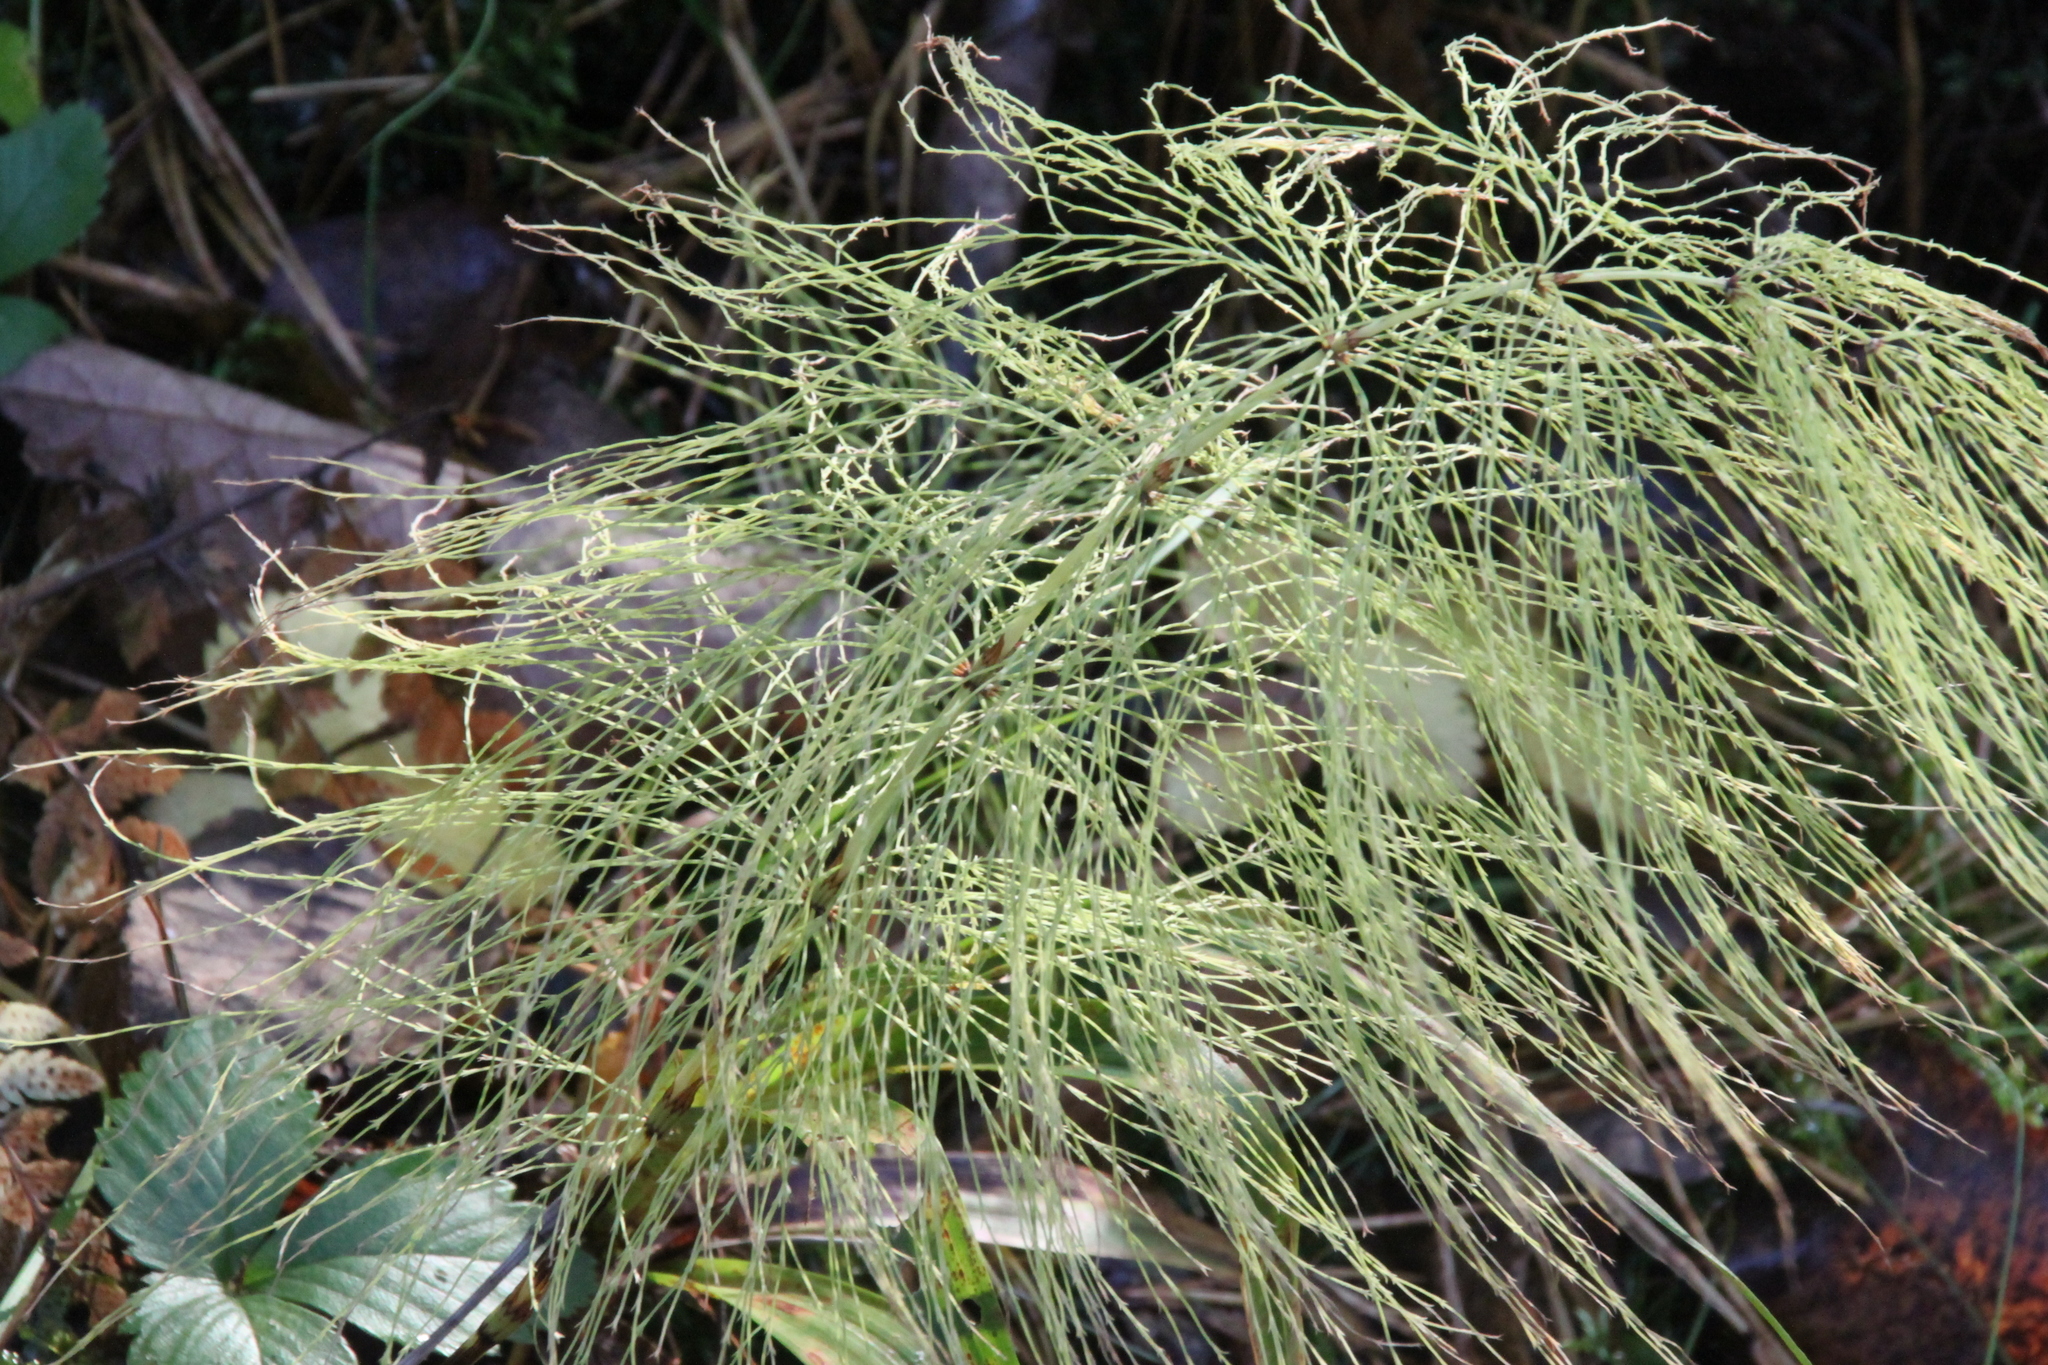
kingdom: Plantae
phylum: Tracheophyta
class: Polypodiopsida
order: Equisetales
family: Equisetaceae
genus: Equisetum
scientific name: Equisetum sylvaticum
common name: Wood horsetail
